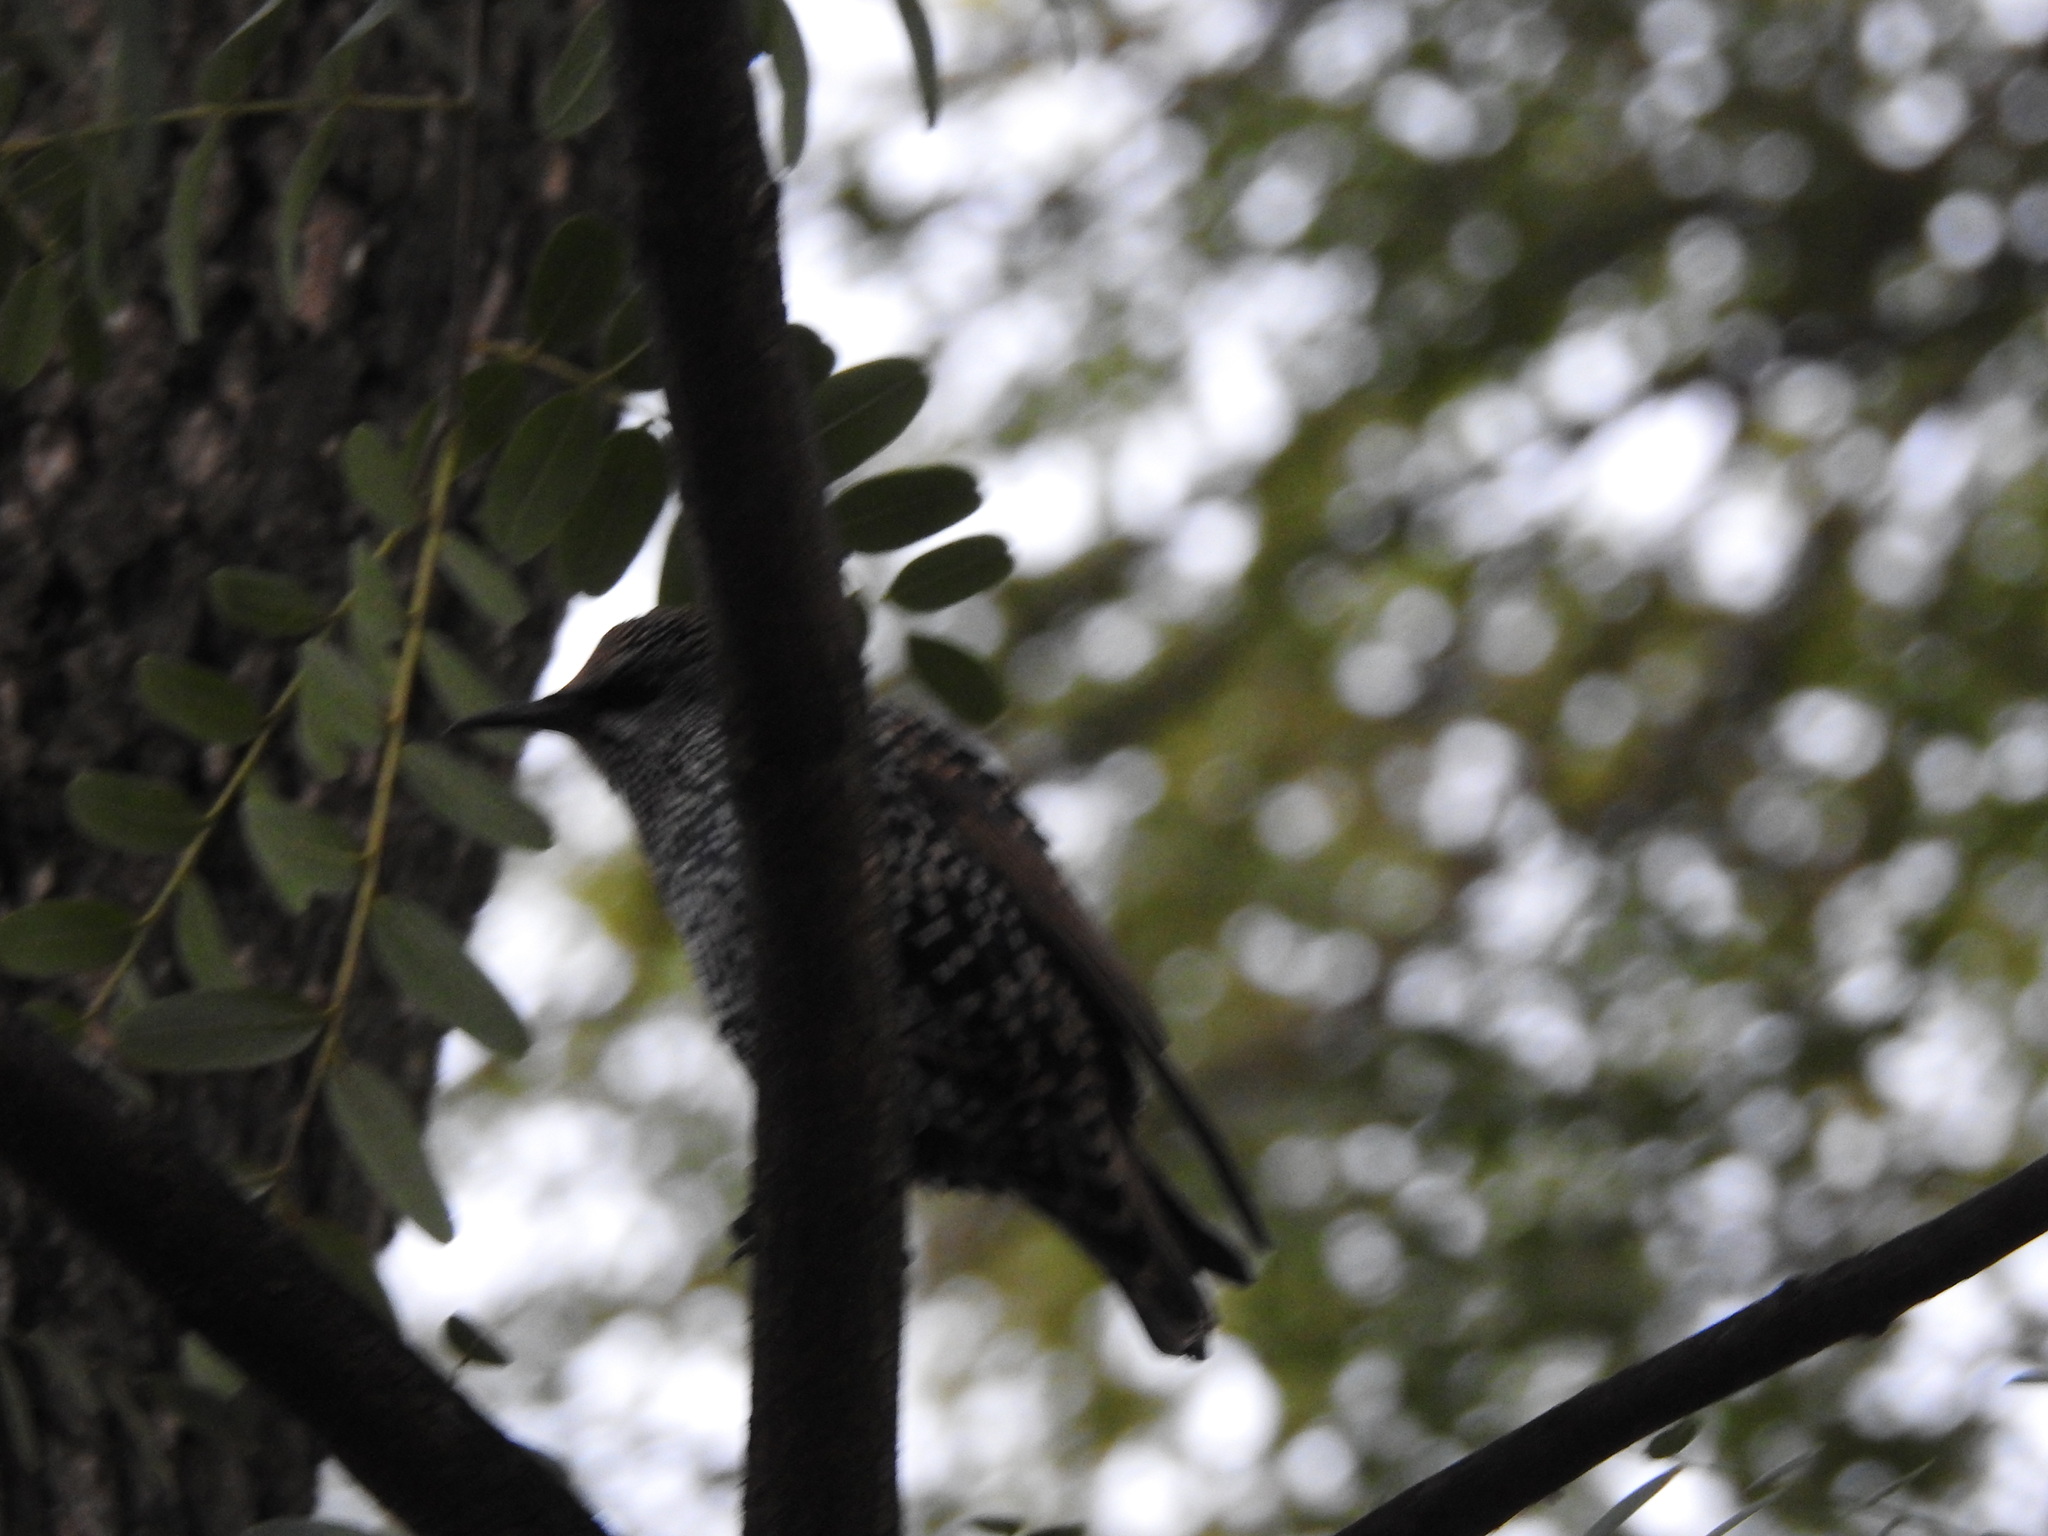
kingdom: Animalia
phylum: Chordata
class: Aves
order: Passeriformes
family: Sturnidae
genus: Sturnus
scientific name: Sturnus vulgaris
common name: Common starling
